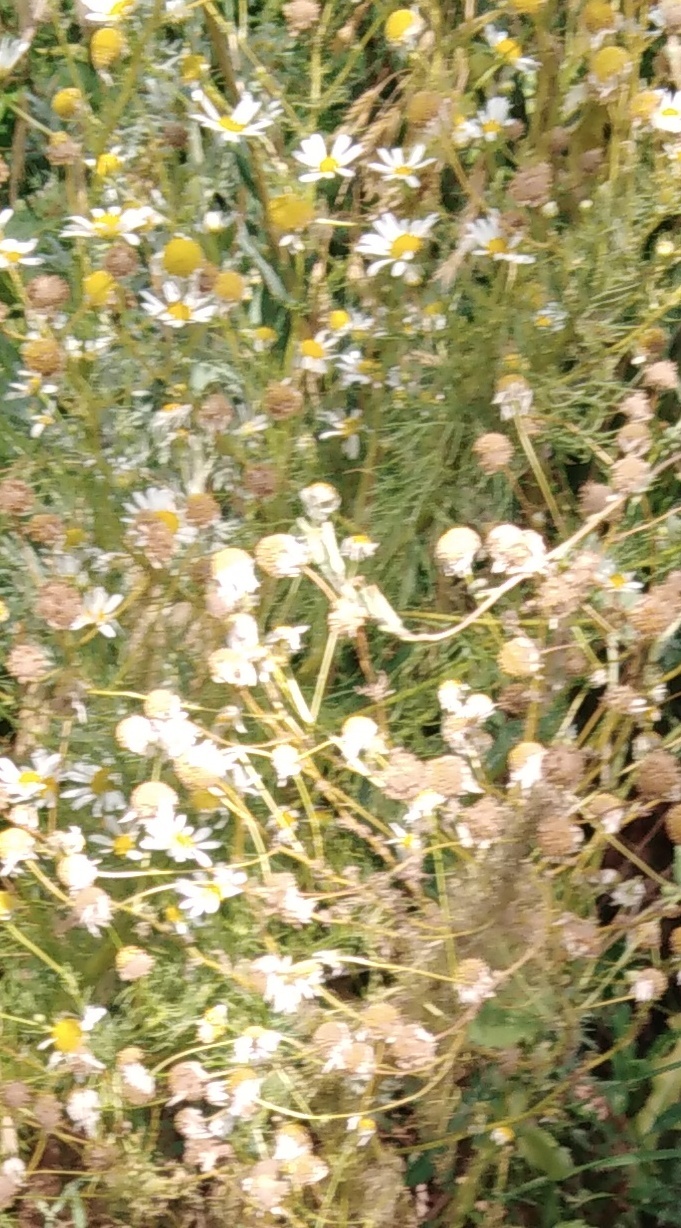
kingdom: Plantae
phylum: Tracheophyta
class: Magnoliopsida
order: Asterales
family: Asteraceae
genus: Tripleurospermum
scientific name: Tripleurospermum inodorum
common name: Scentless mayweed
